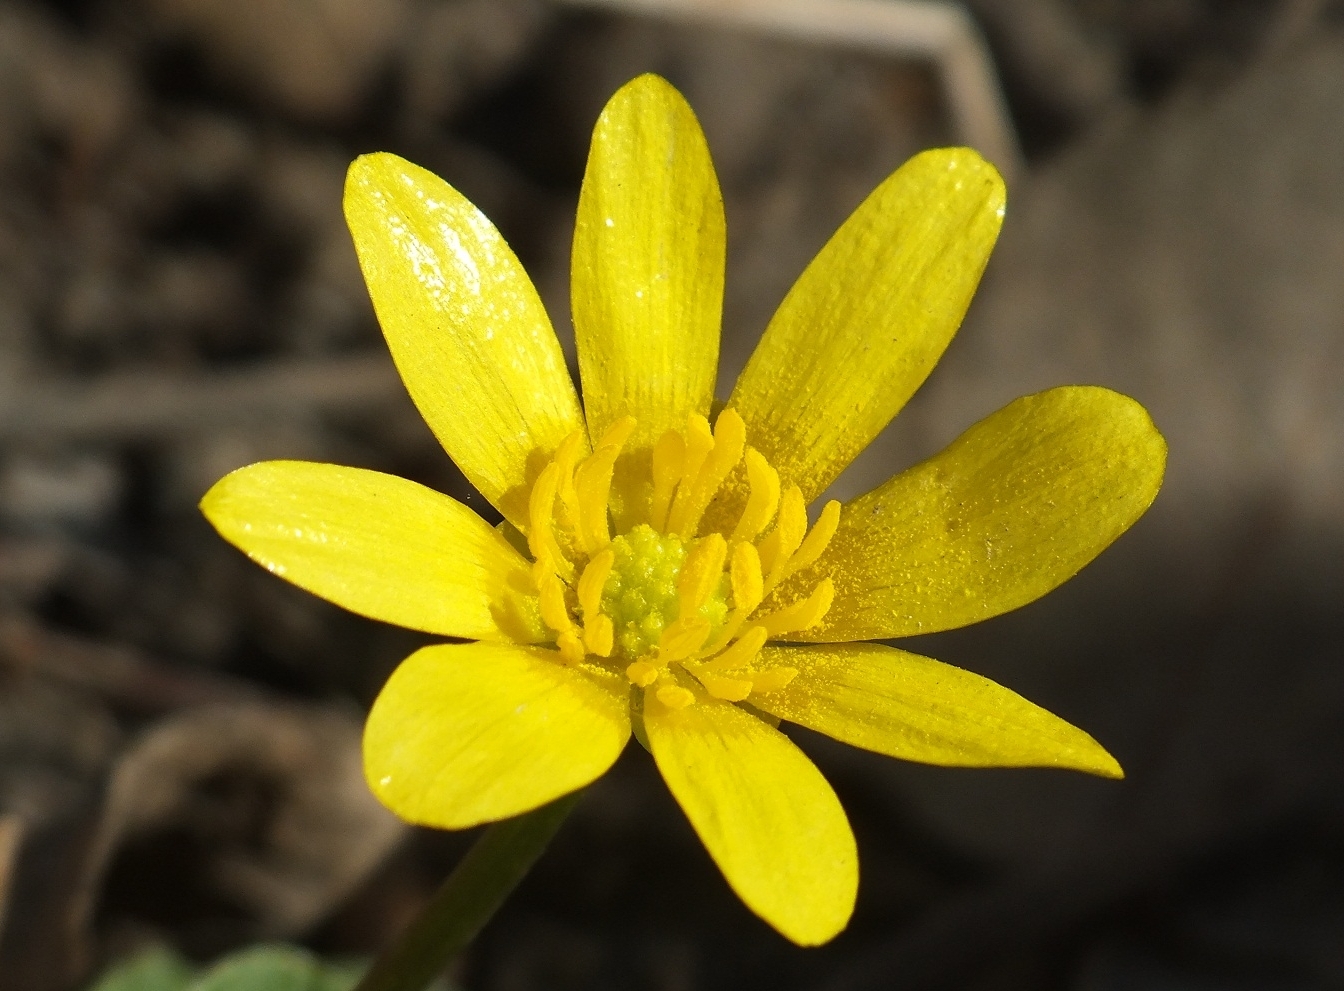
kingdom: Plantae
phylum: Tracheophyta
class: Magnoliopsida
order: Ranunculales
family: Ranunculaceae
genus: Ficaria
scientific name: Ficaria verna
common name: Lesser celandine
